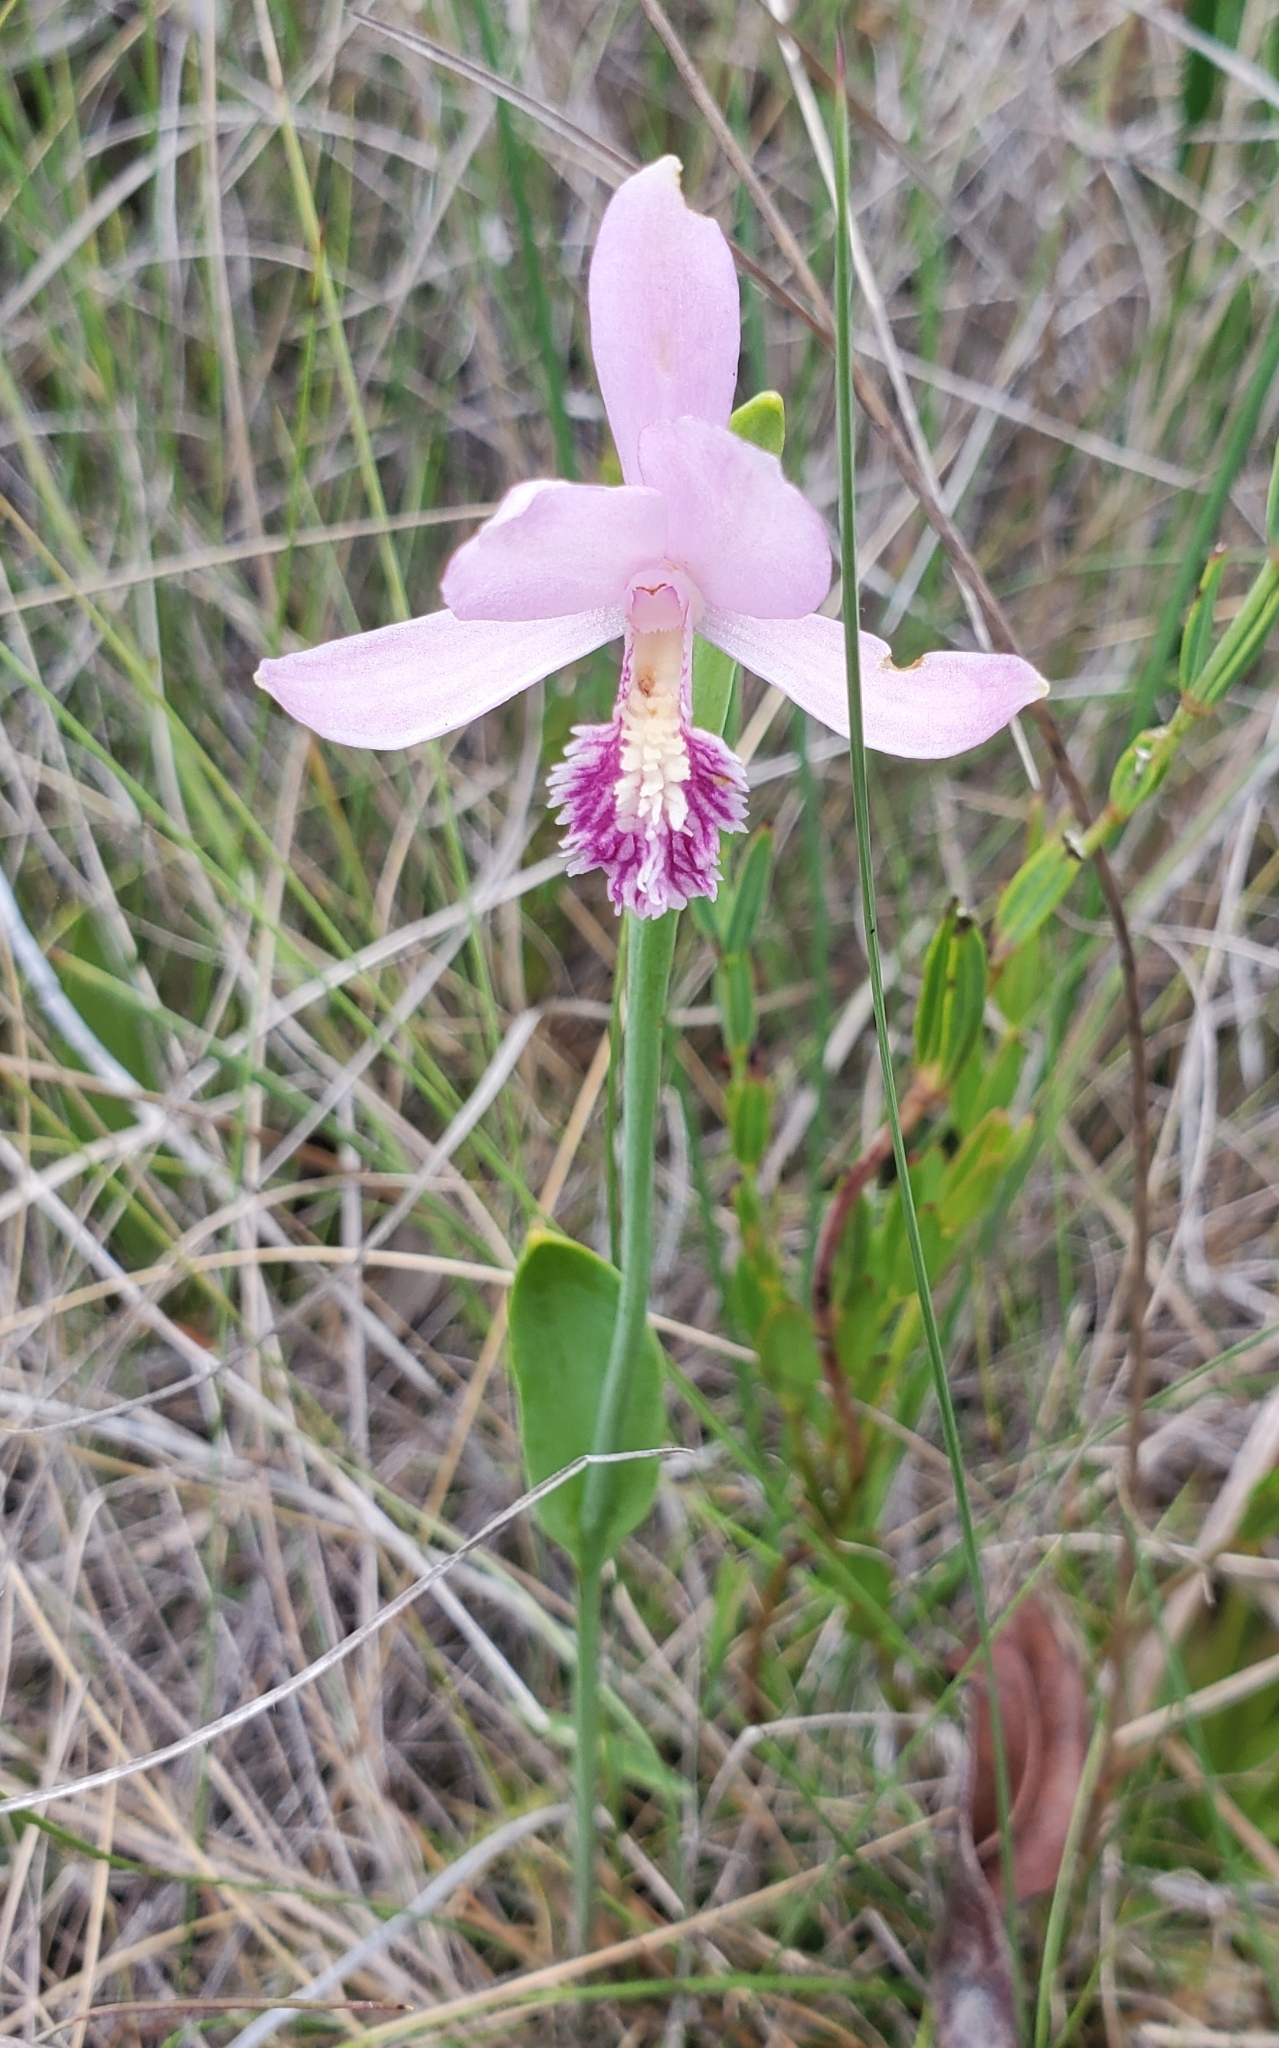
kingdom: Plantae
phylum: Tracheophyta
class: Liliopsida
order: Asparagales
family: Orchidaceae
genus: Pogonia
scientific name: Pogonia ophioglossoides
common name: Rose pogonia
